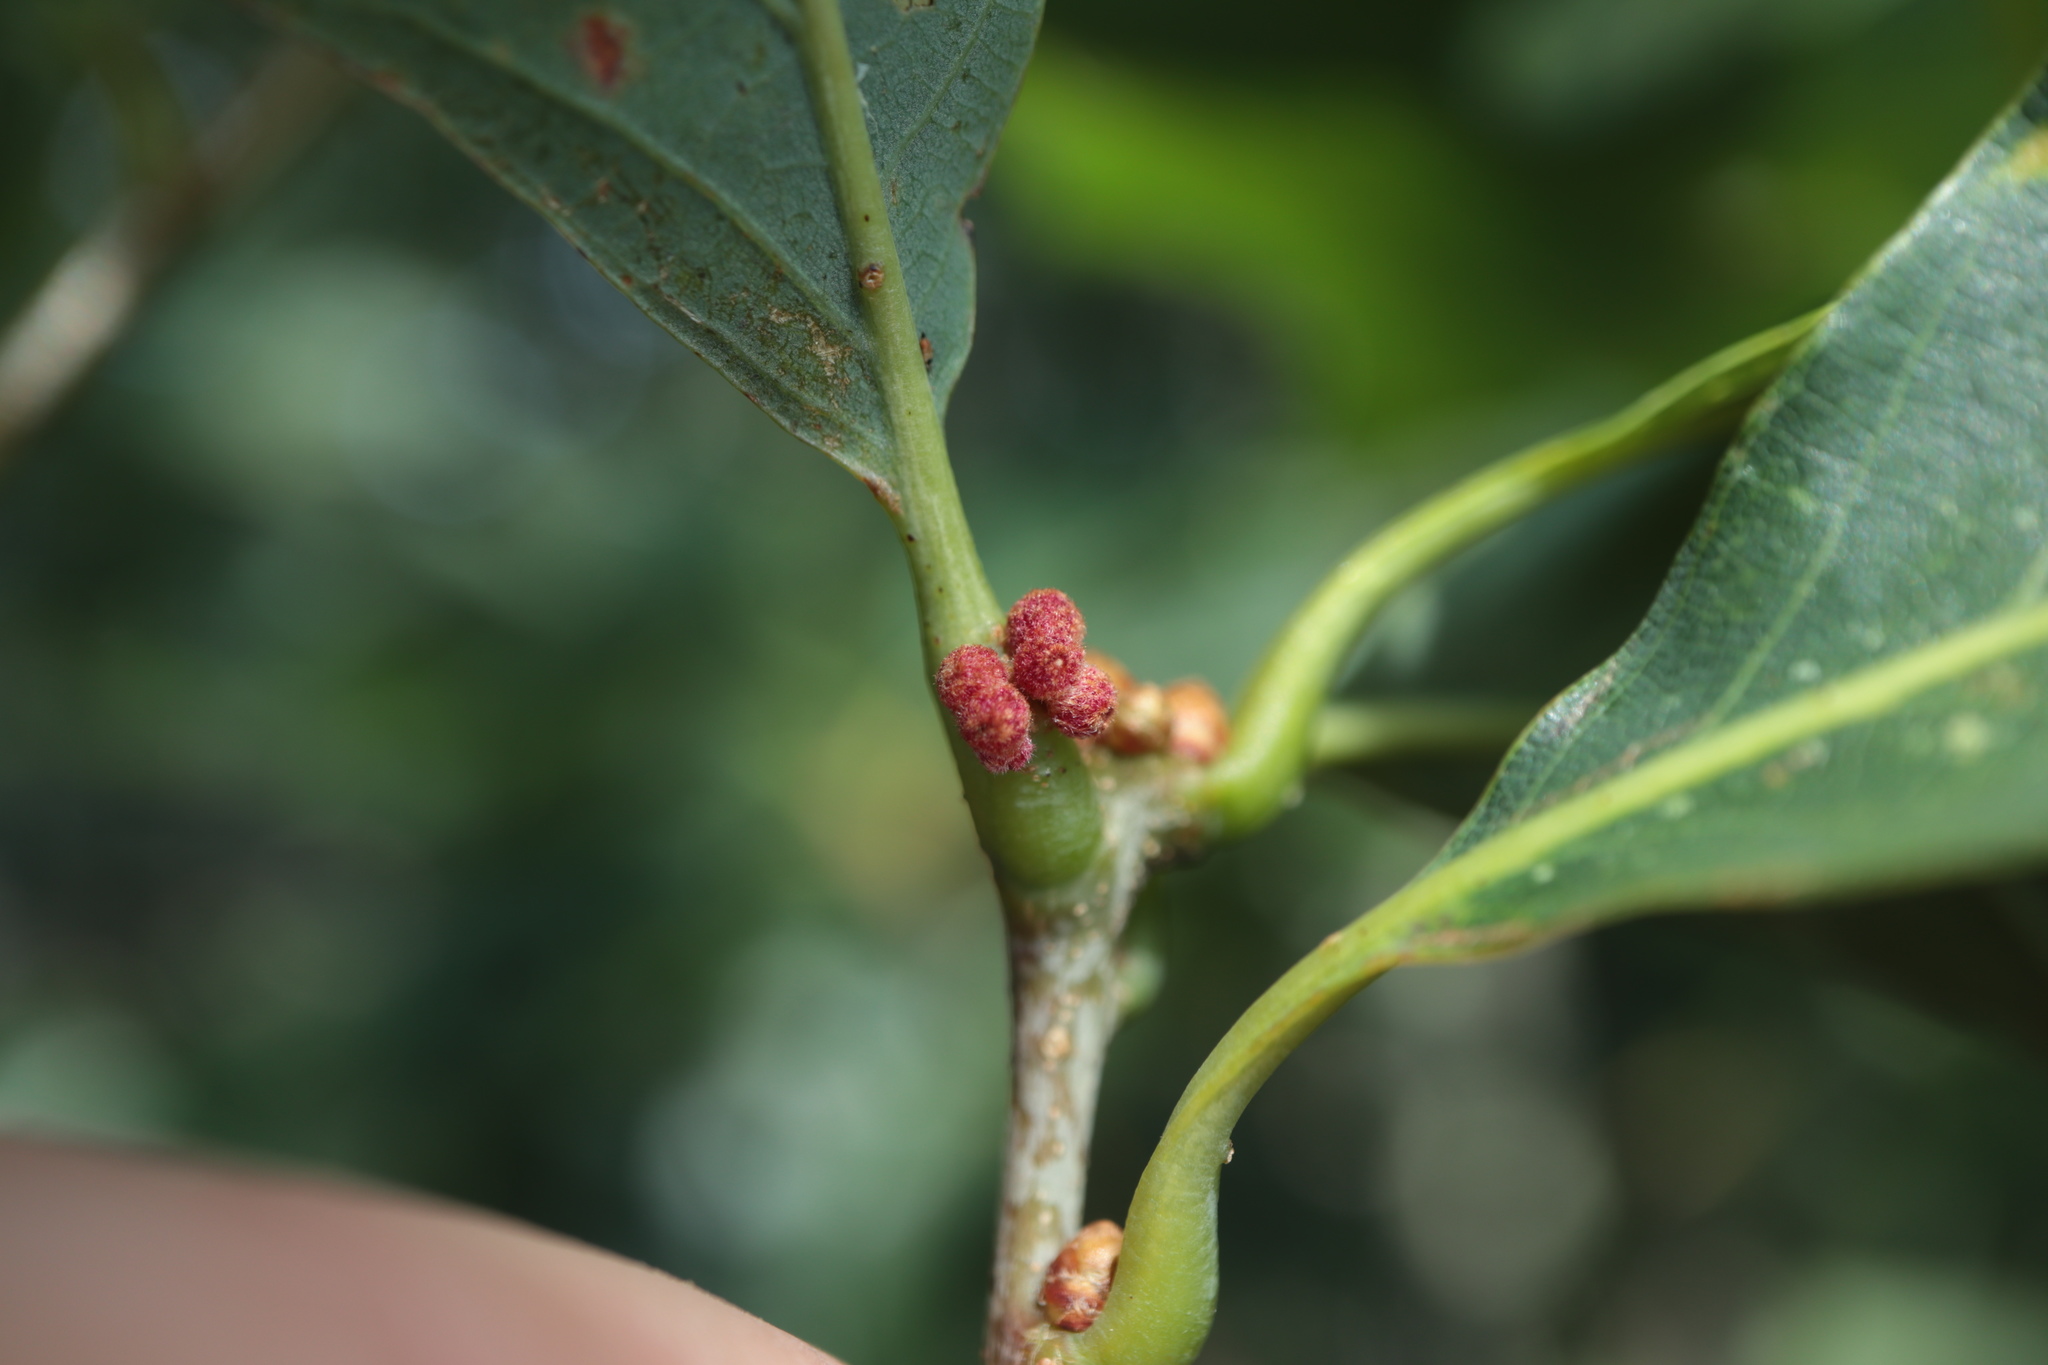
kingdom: Animalia
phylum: Arthropoda
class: Insecta
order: Hymenoptera
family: Cynipidae
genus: Andricus
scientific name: Andricus
